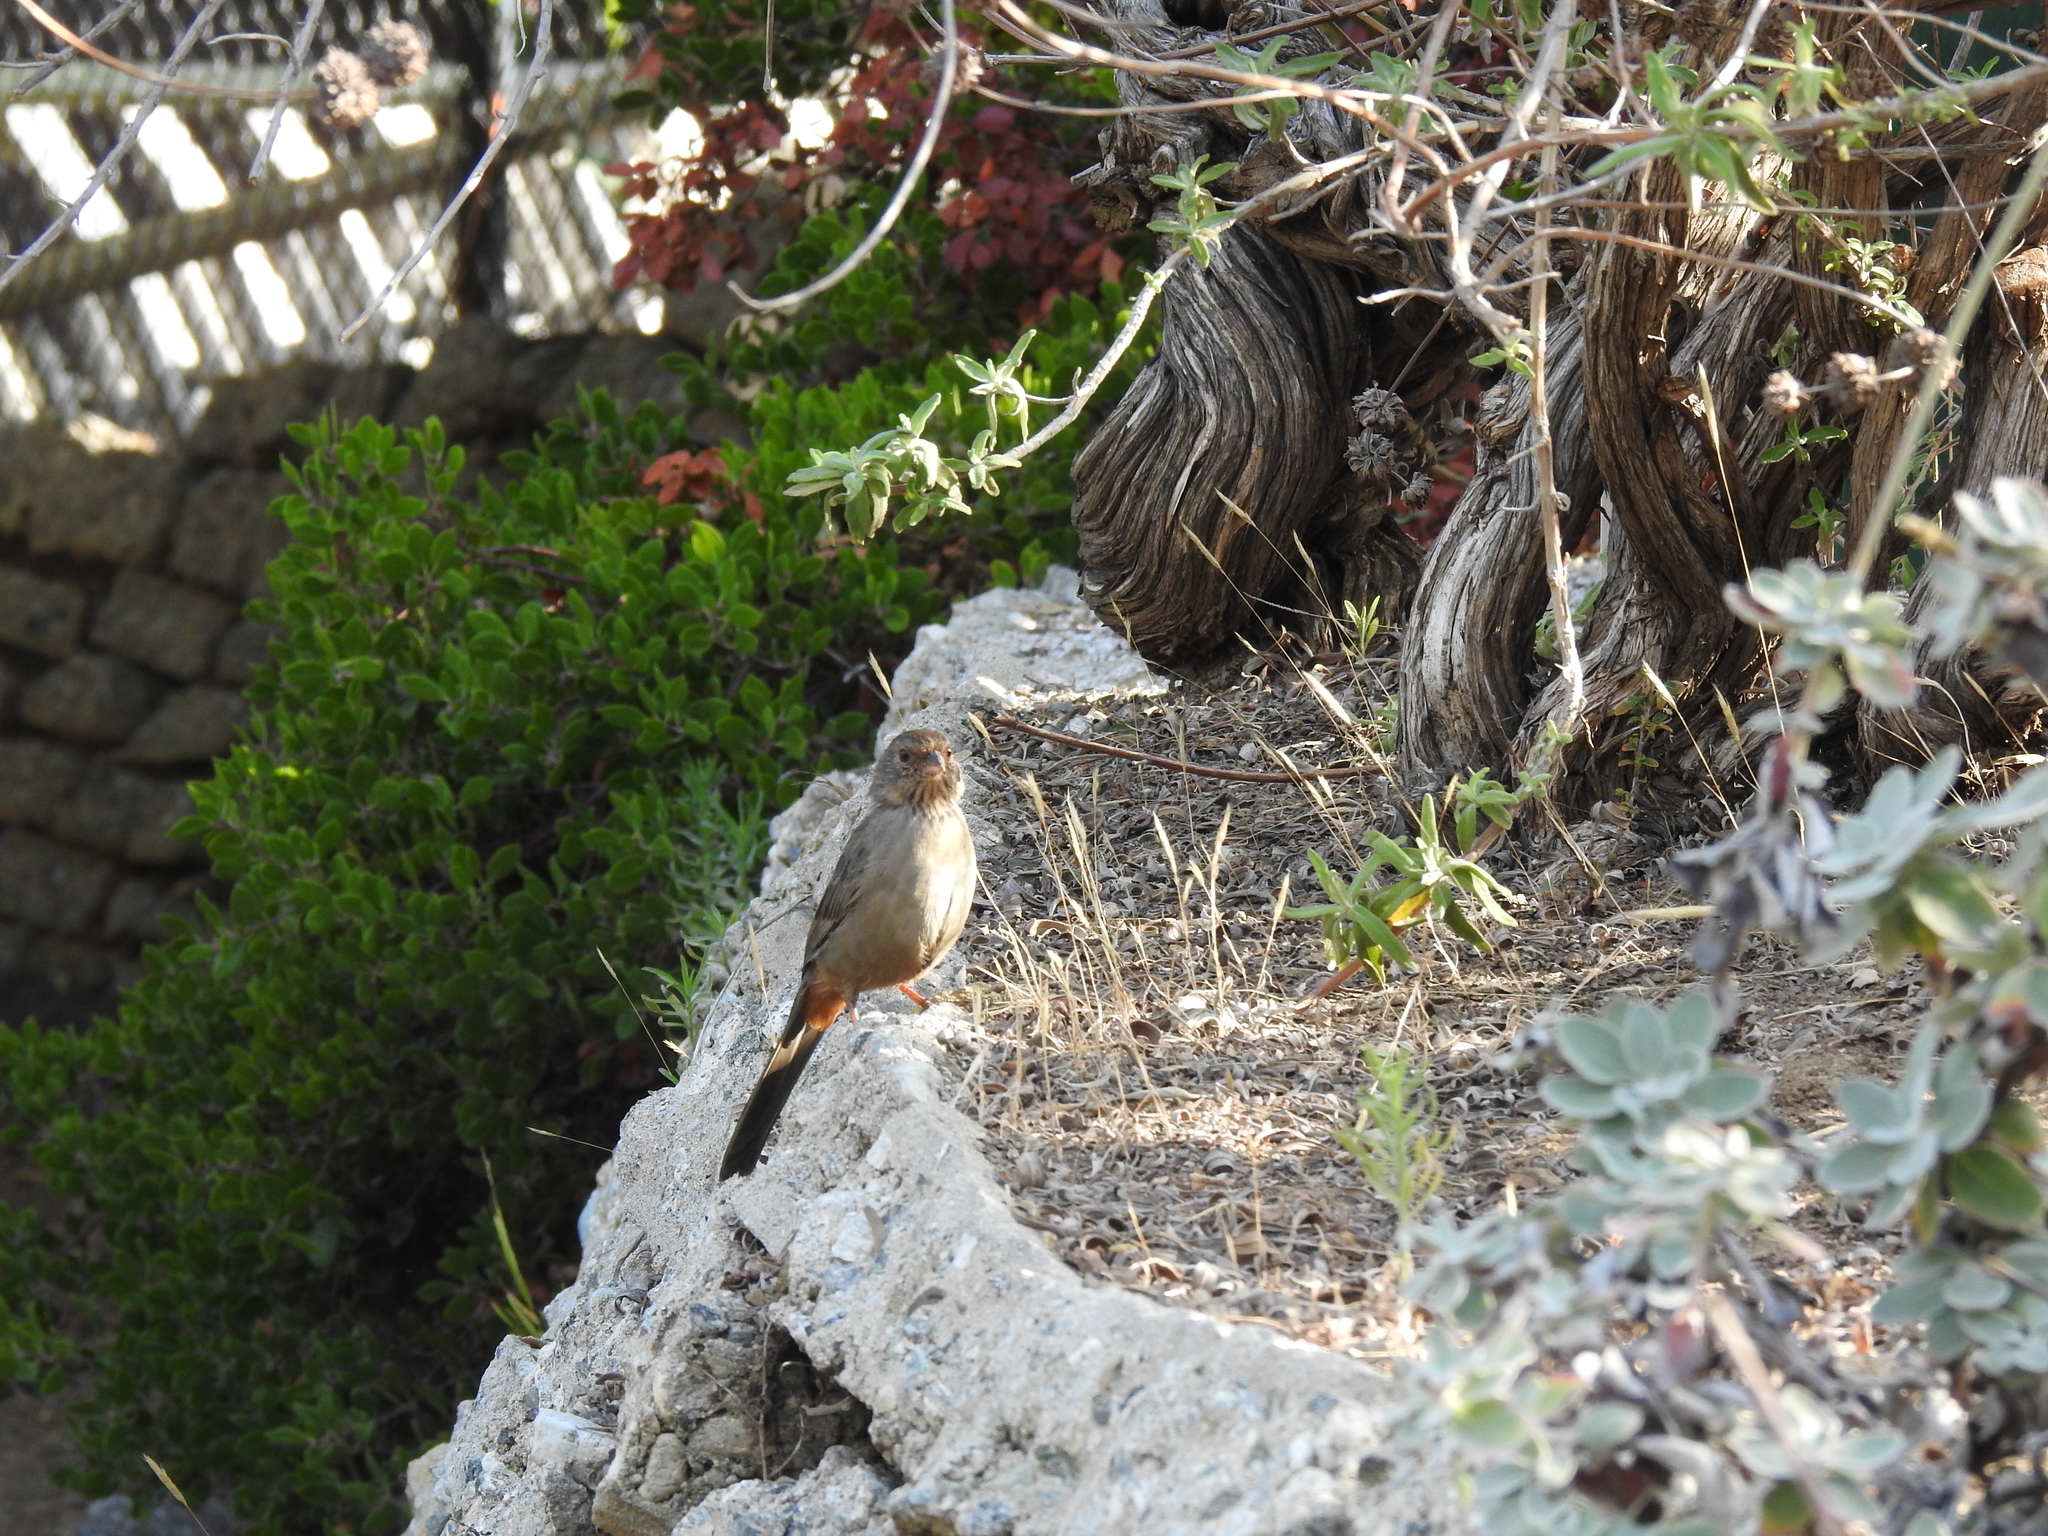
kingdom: Animalia
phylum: Chordata
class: Aves
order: Passeriformes
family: Passerellidae
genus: Melozone
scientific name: Melozone crissalis
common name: California towhee
